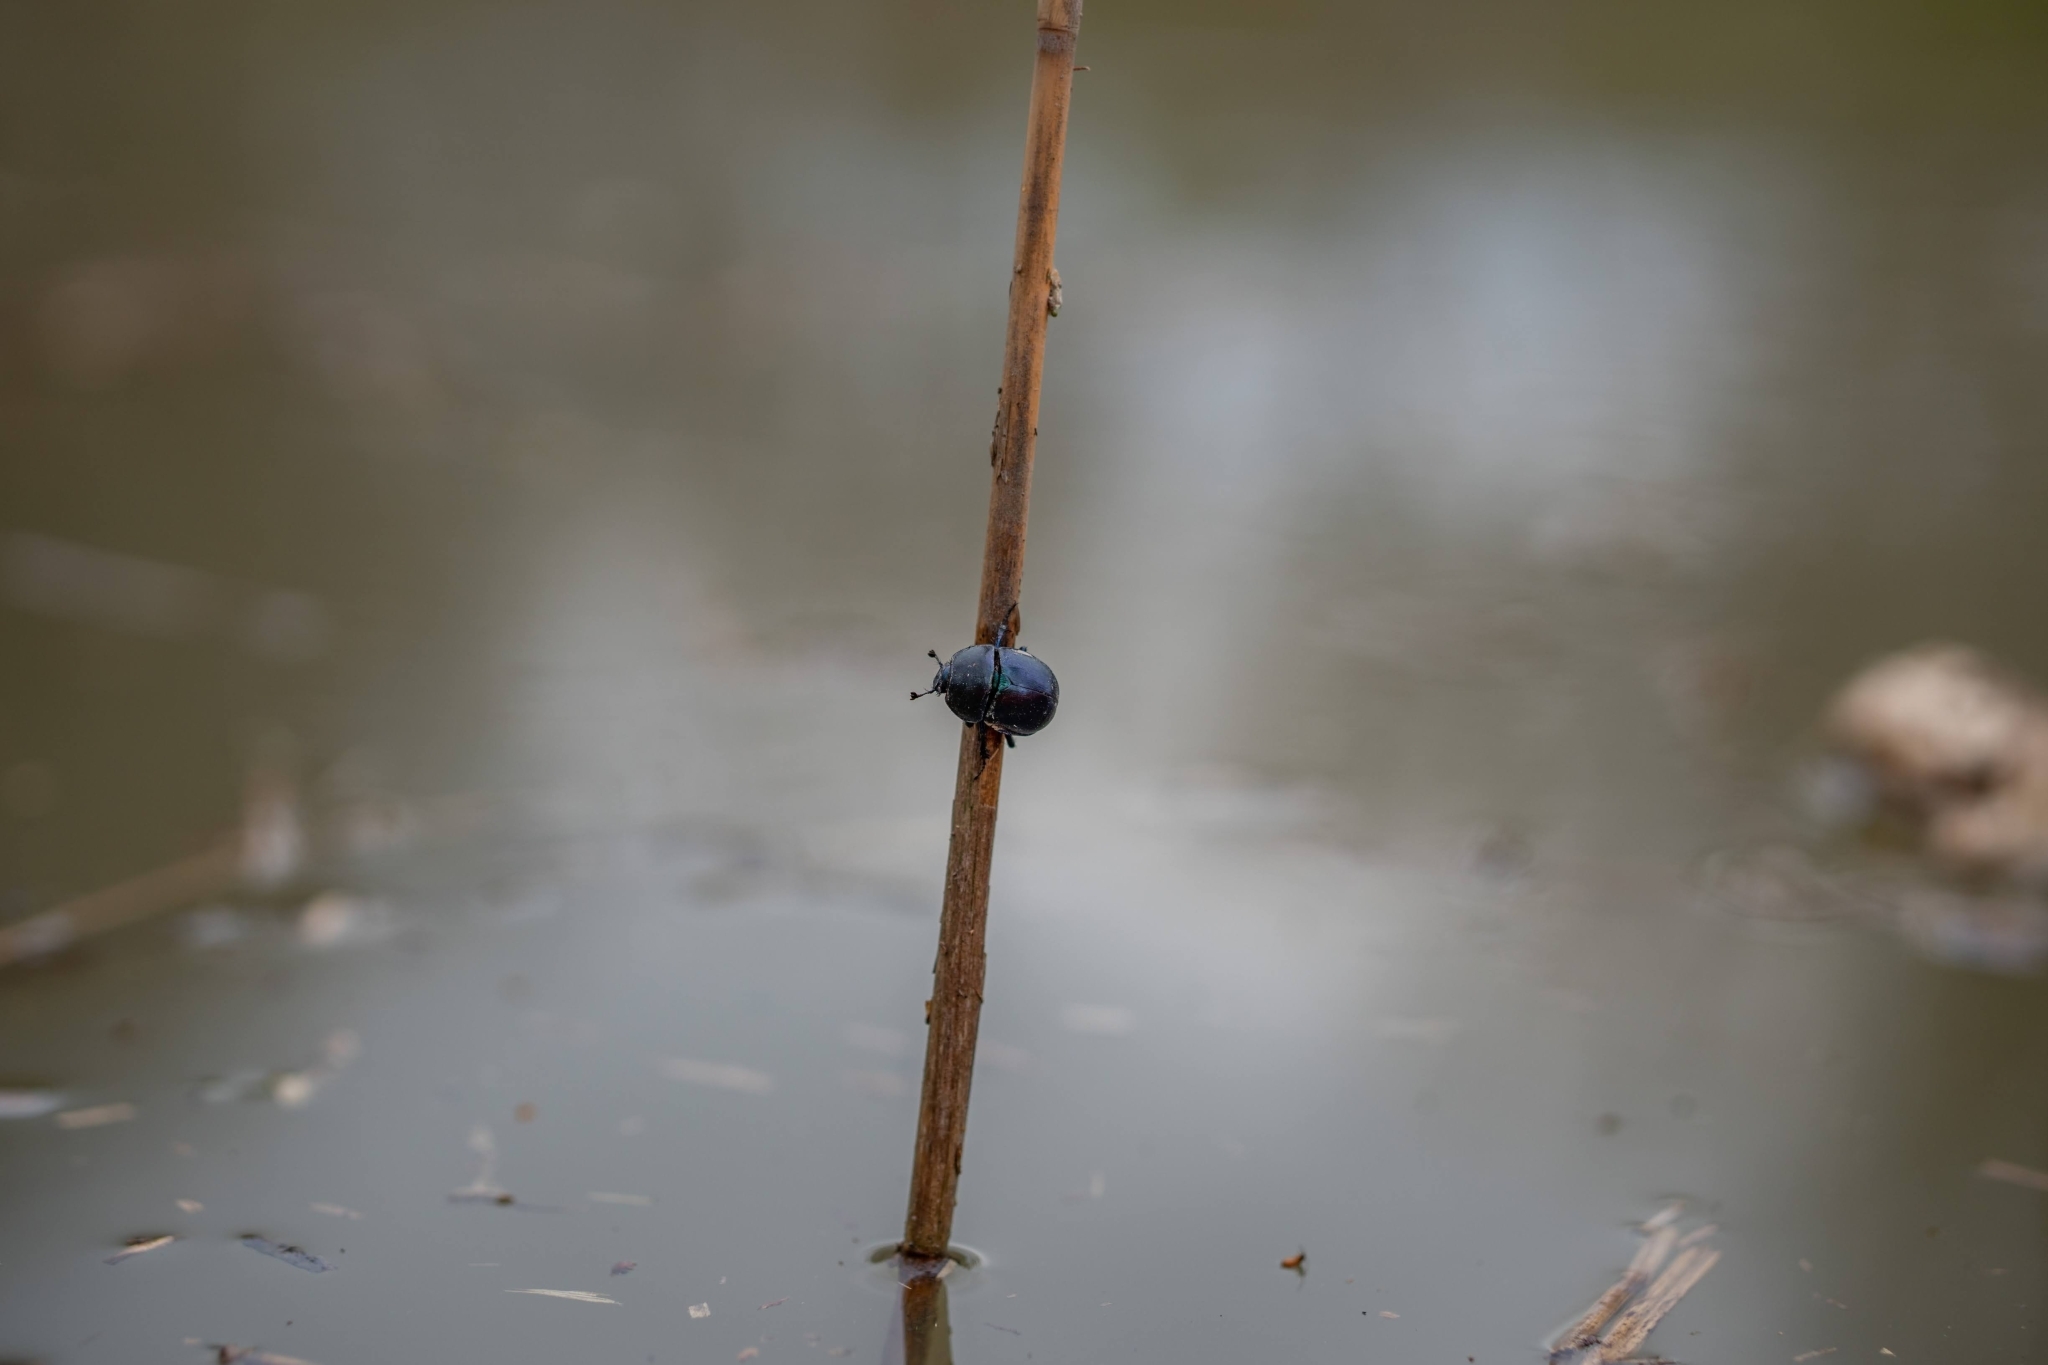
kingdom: Animalia
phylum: Arthropoda
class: Insecta
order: Coleoptera
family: Geotrupidae
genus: Trypocopris
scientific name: Trypocopris vernalis
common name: Spring dumbledor
